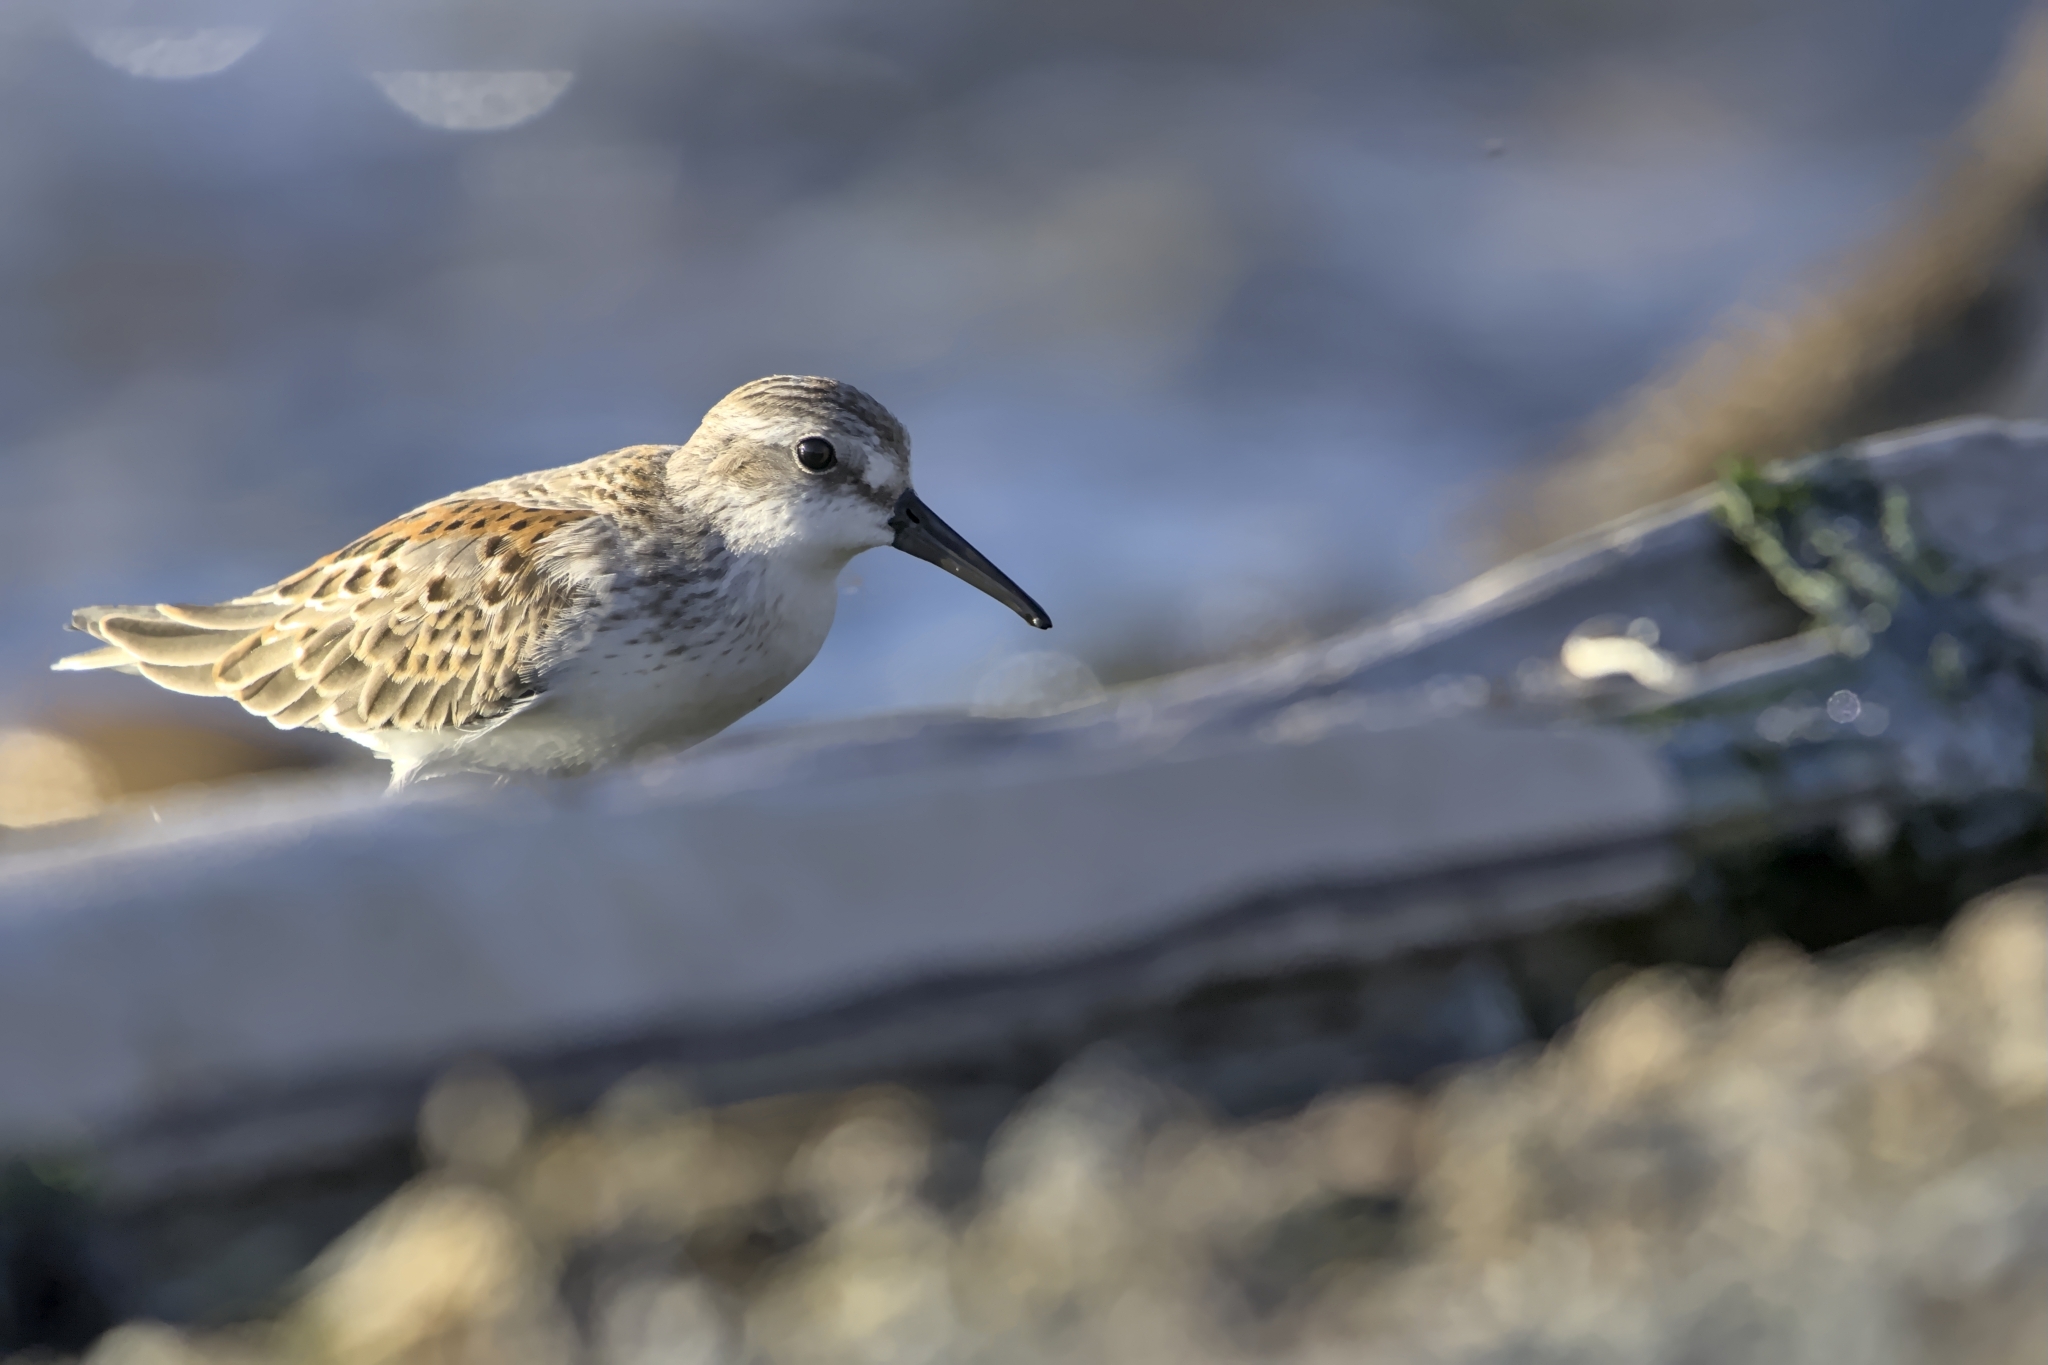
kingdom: Animalia
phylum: Chordata
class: Aves
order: Charadriiformes
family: Scolopacidae
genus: Calidris
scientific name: Calidris mauri
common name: Western sandpiper
